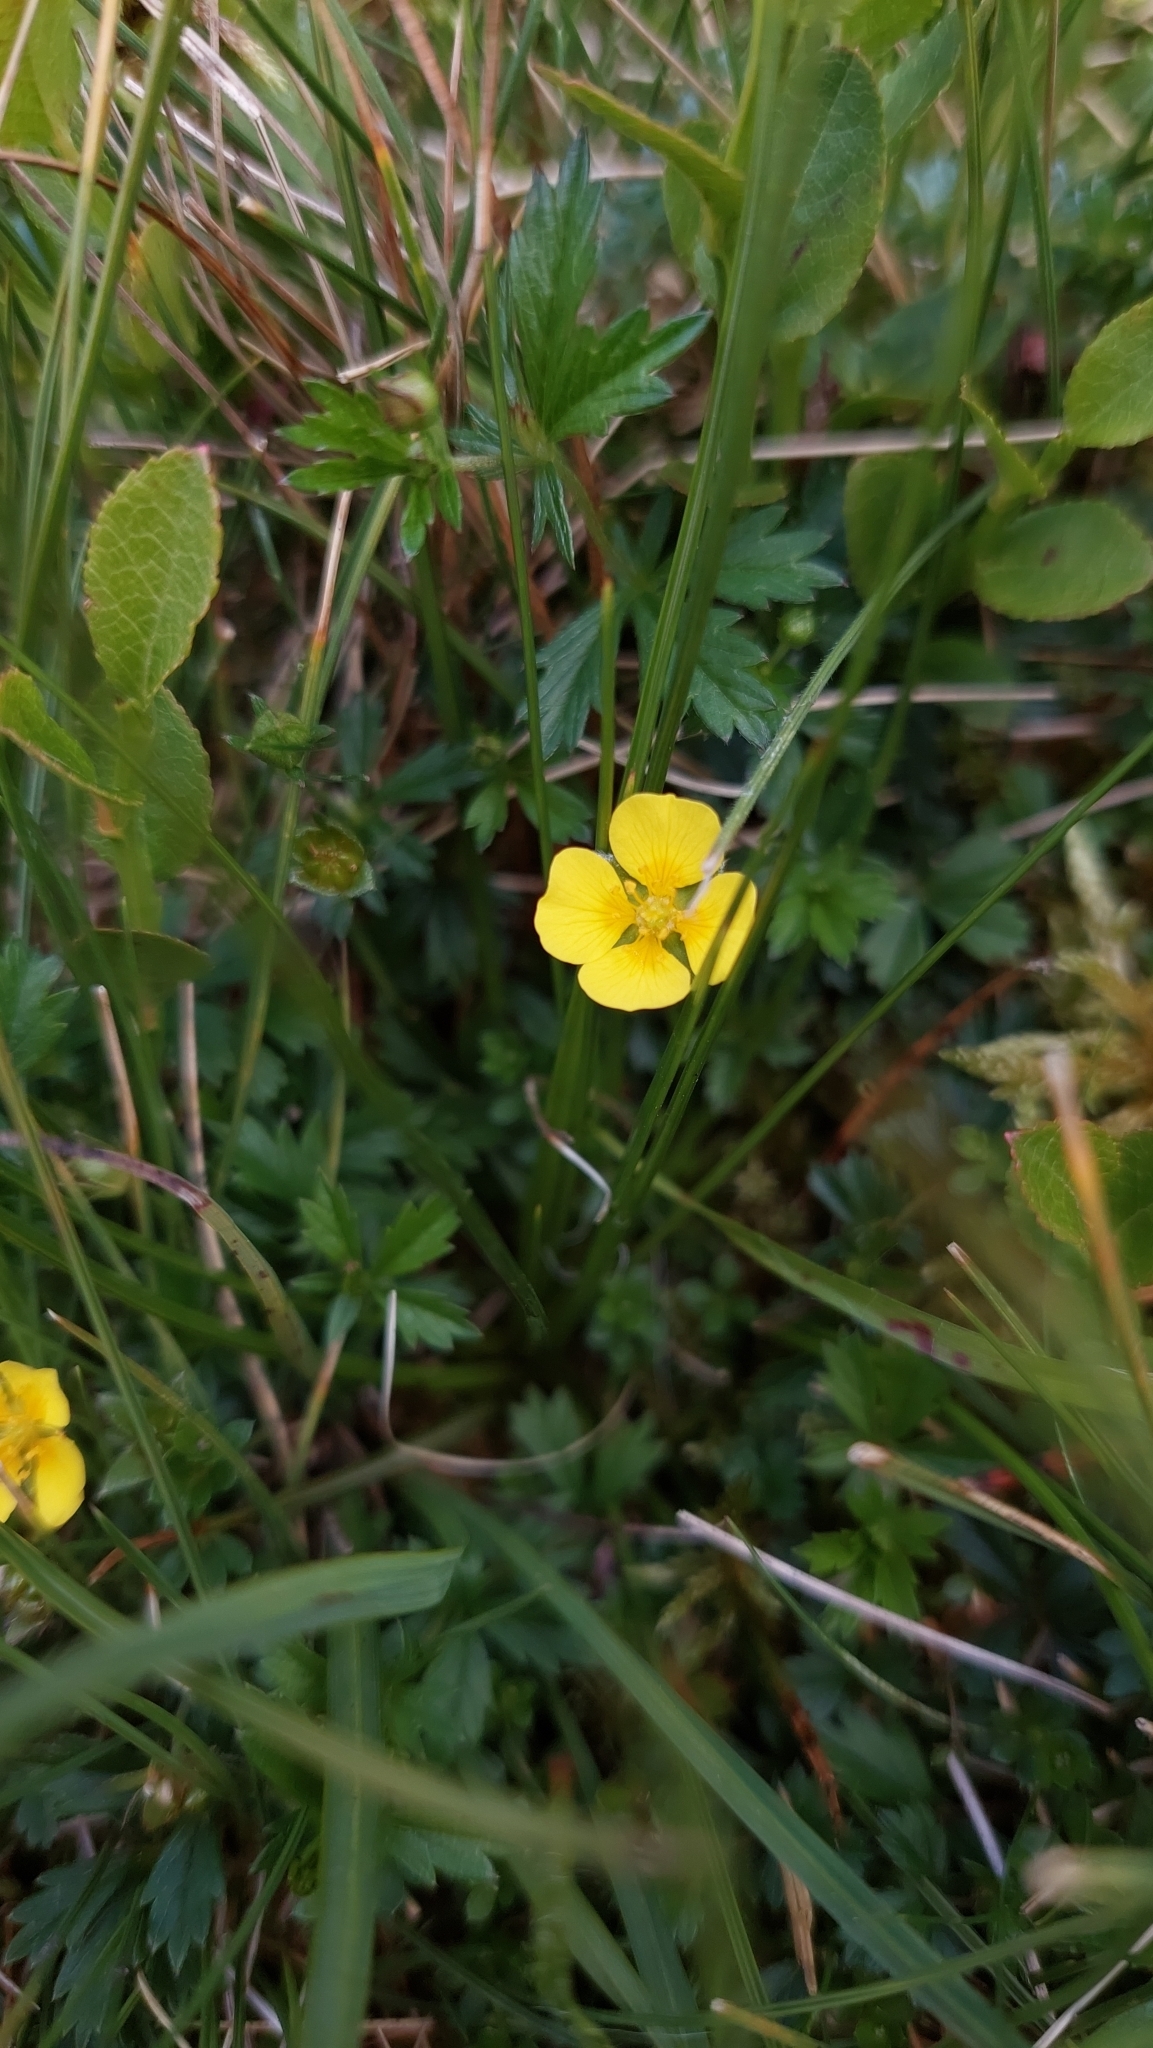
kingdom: Plantae
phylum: Tracheophyta
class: Magnoliopsida
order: Rosales
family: Rosaceae
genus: Potentilla
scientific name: Potentilla erecta
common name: Tormentil
